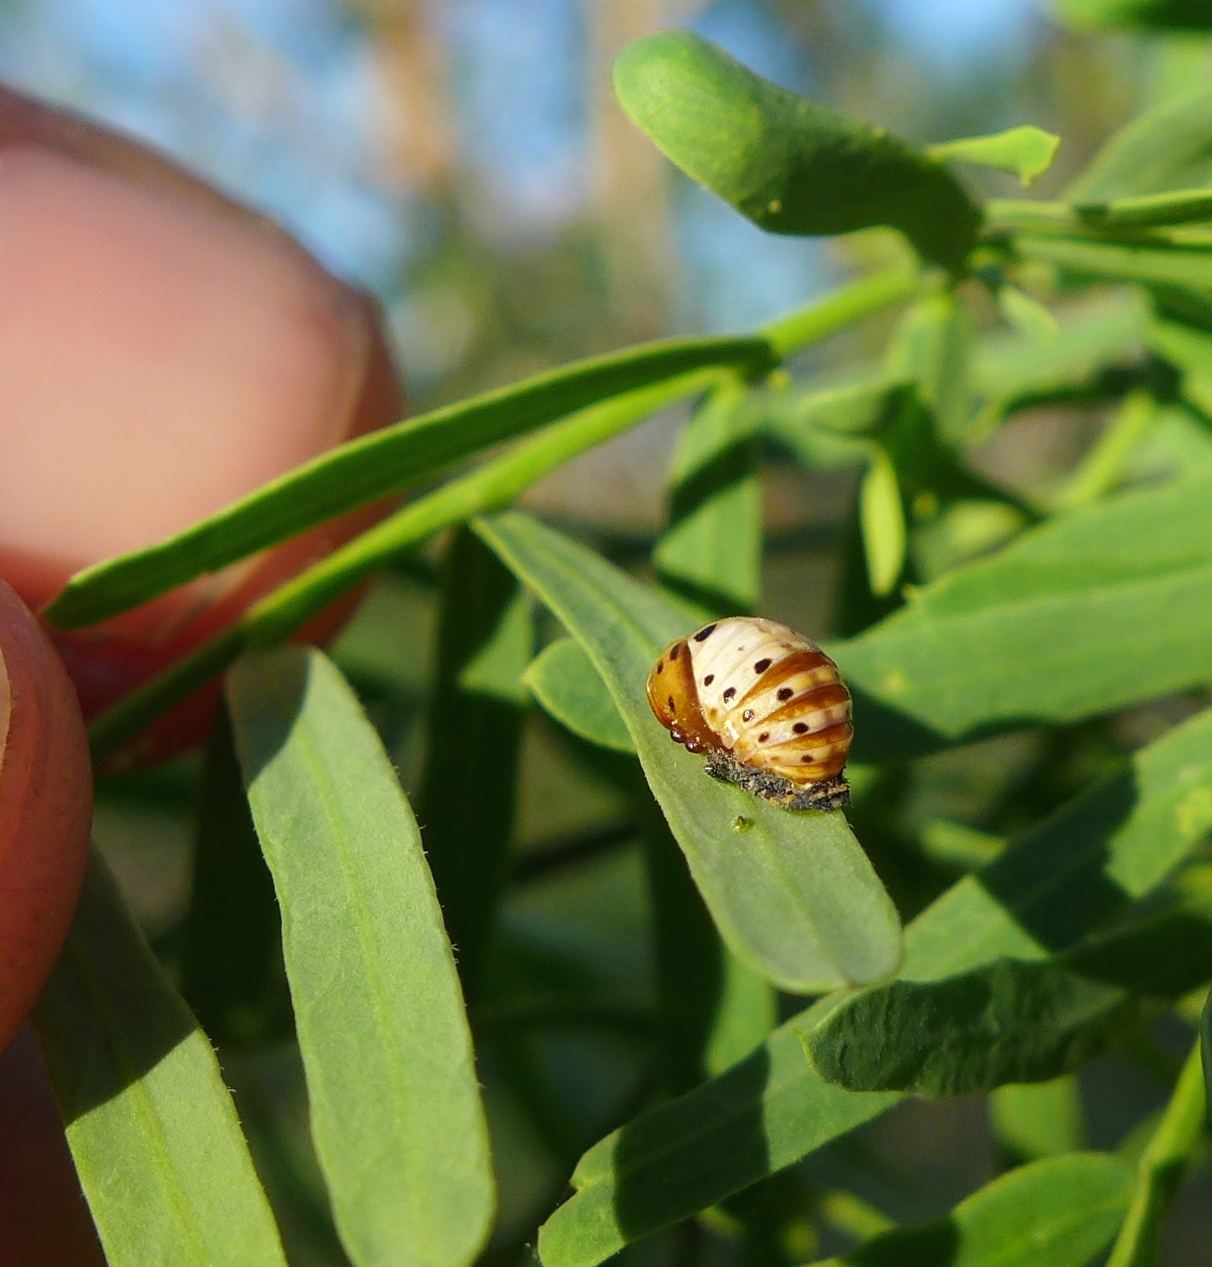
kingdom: Animalia
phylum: Arthropoda
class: Insecta
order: Coleoptera
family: Coccinellidae
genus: Olla
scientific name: Olla v-nigrum
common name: Ashy gray lady beetle
